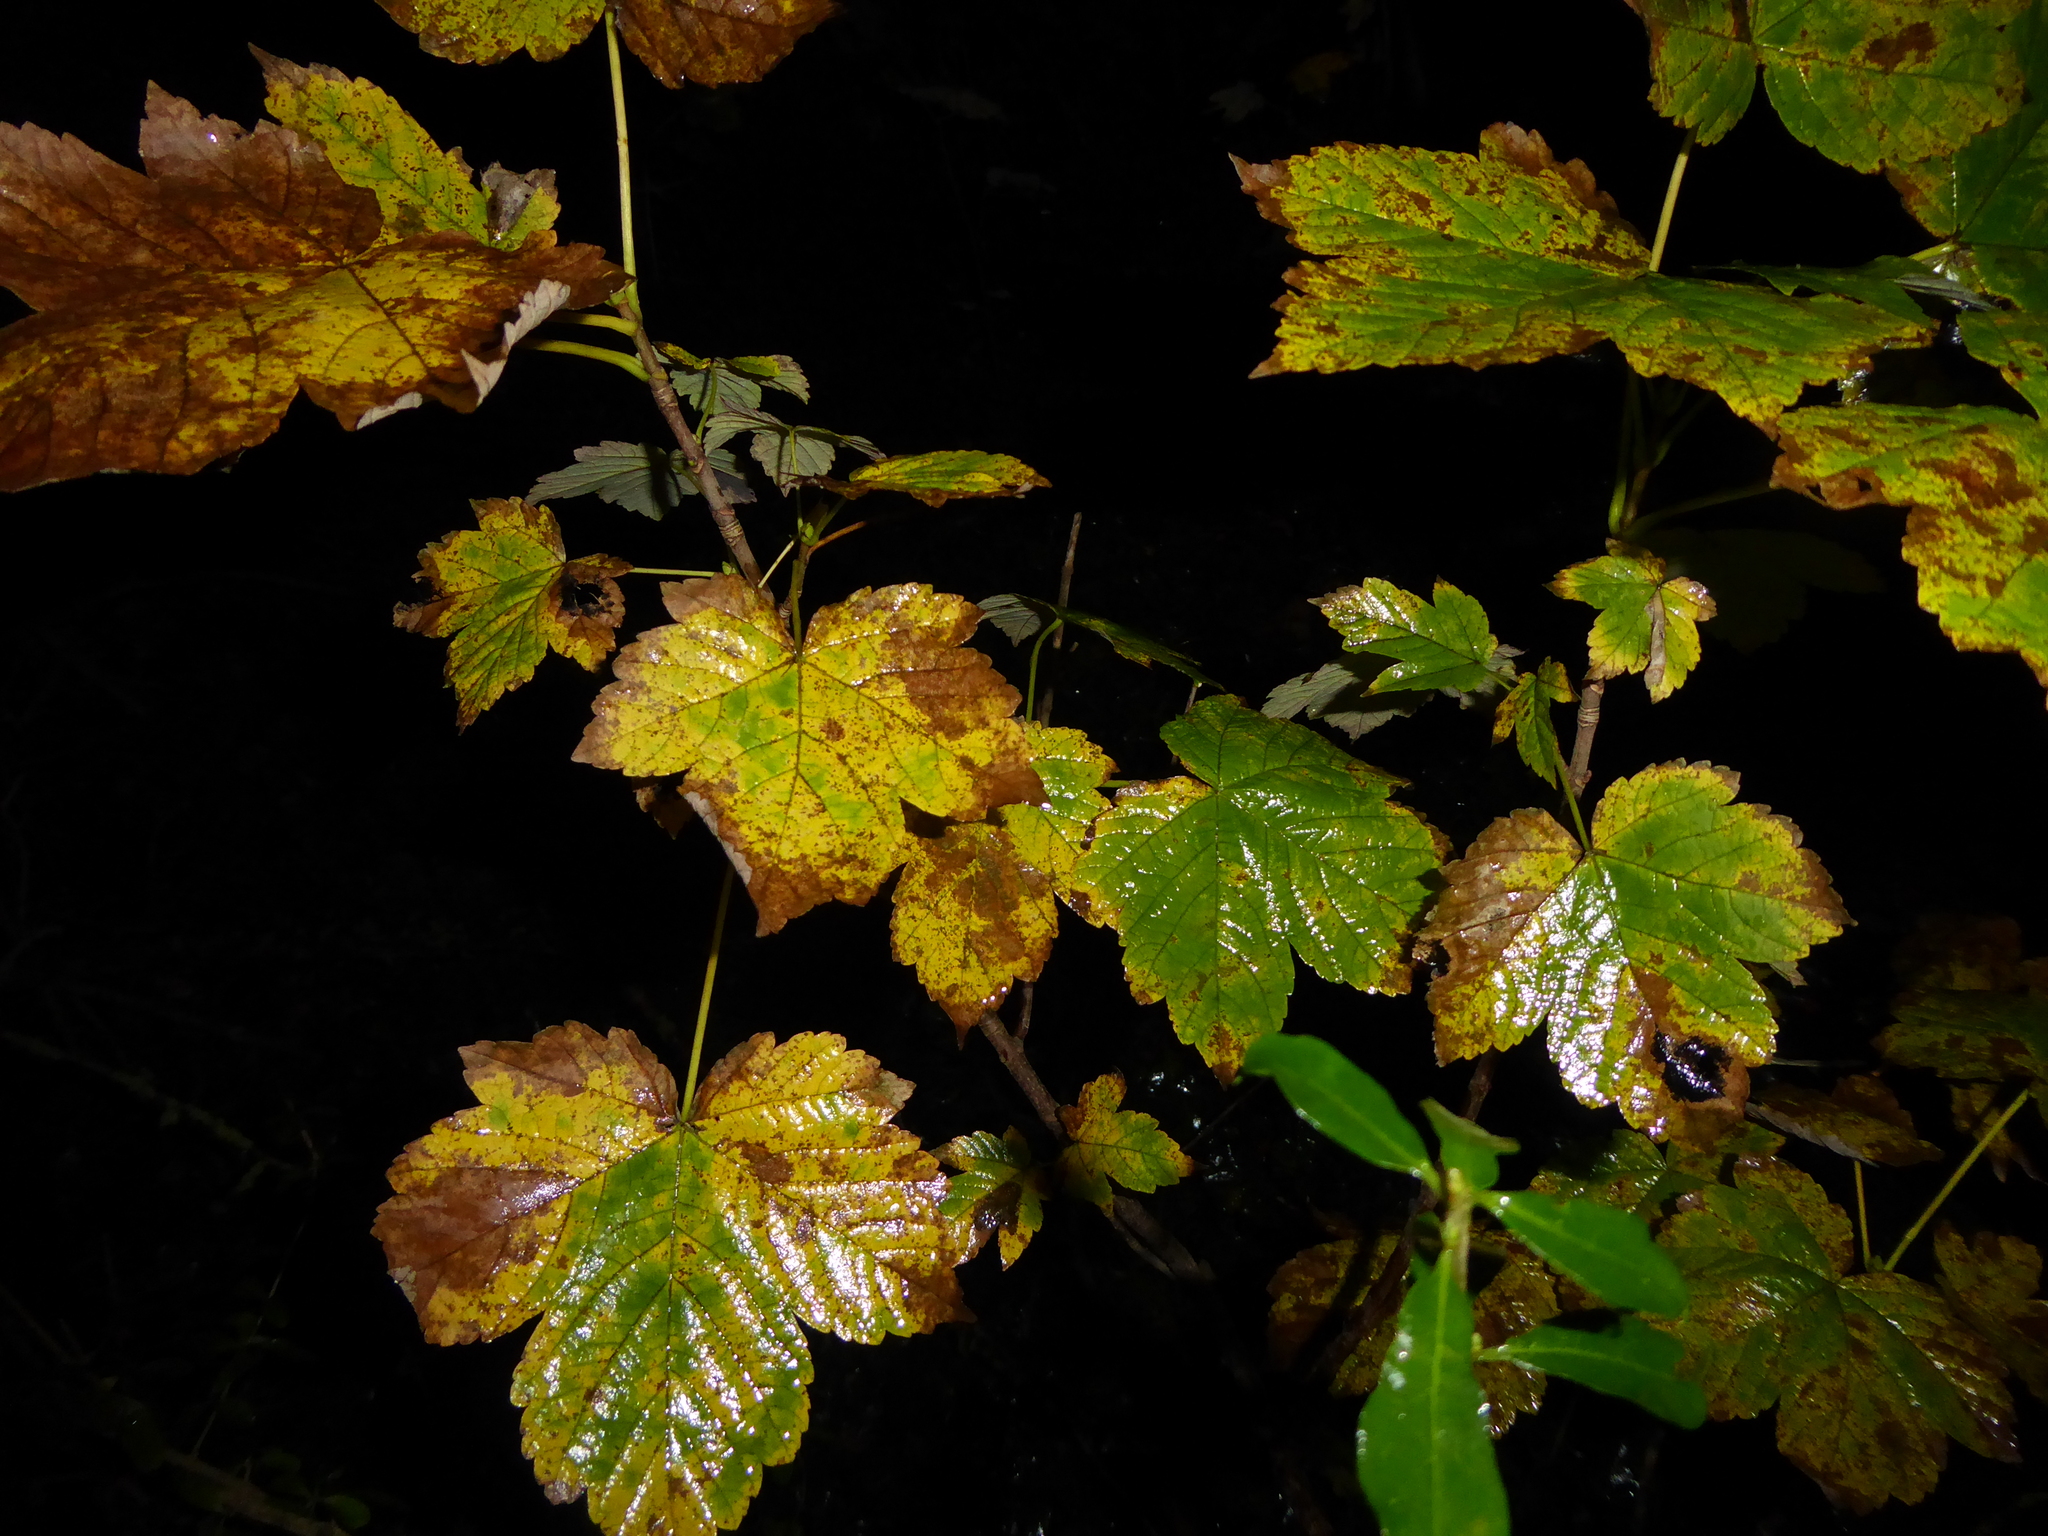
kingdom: Plantae
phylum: Tracheophyta
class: Magnoliopsida
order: Sapindales
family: Sapindaceae
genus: Acer
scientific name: Acer pseudoplatanus
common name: Sycamore
